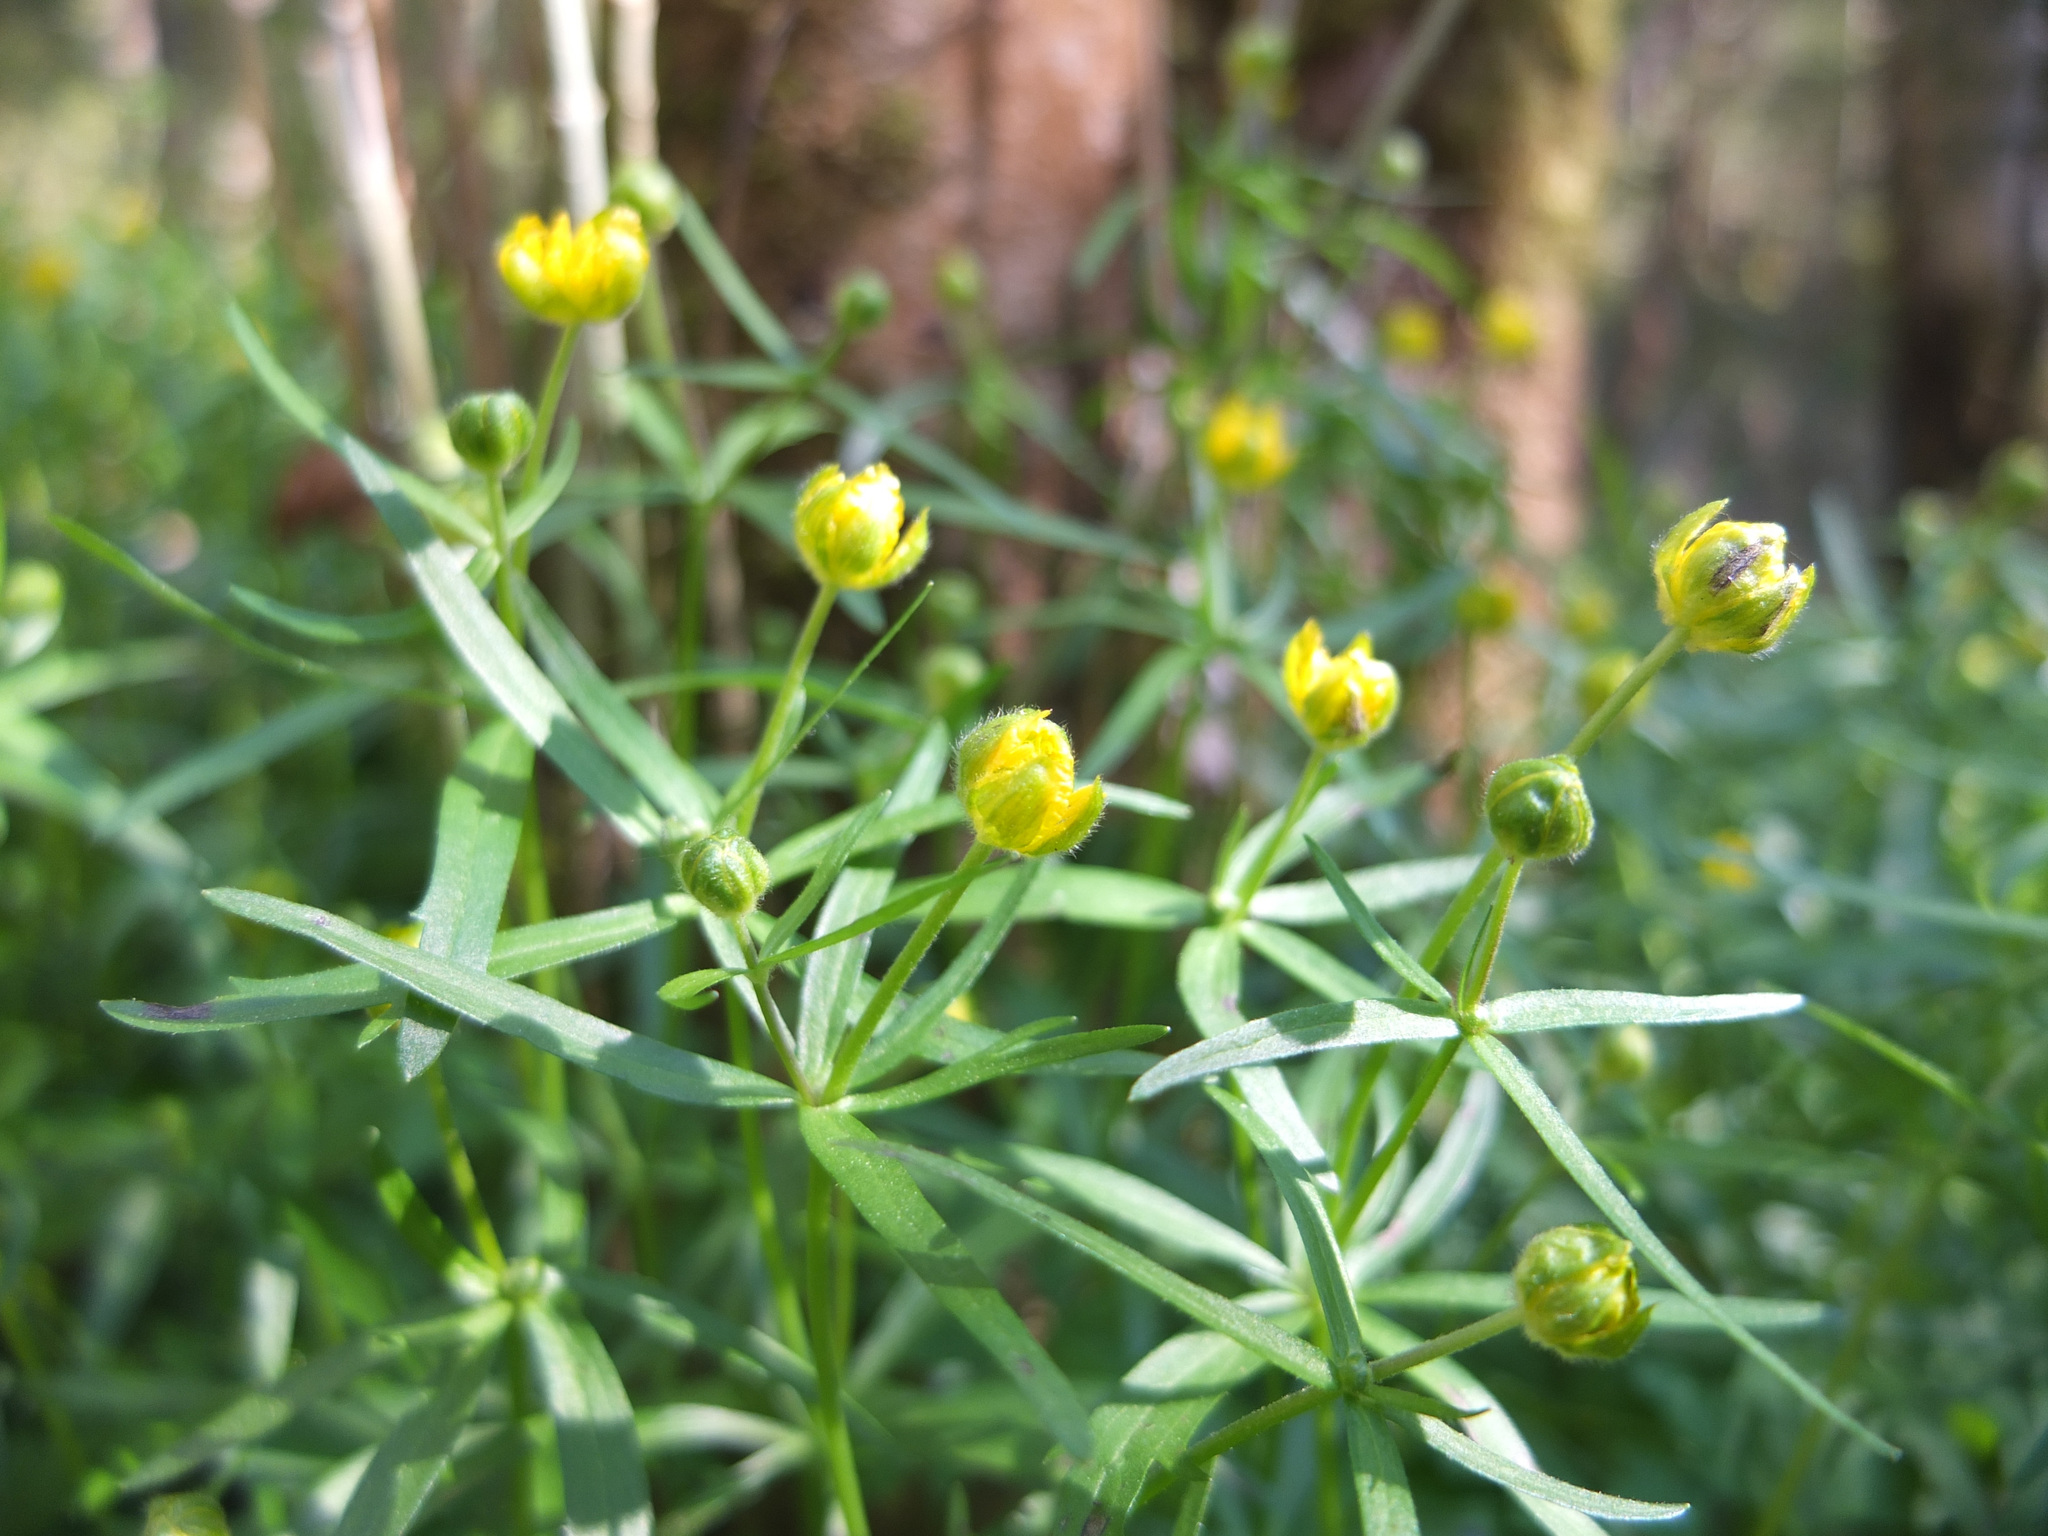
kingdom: Plantae
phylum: Tracheophyta
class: Magnoliopsida
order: Ranunculales
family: Ranunculaceae
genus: Ranunculus
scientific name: Ranunculus auricomus
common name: Goldilocks buttercup
